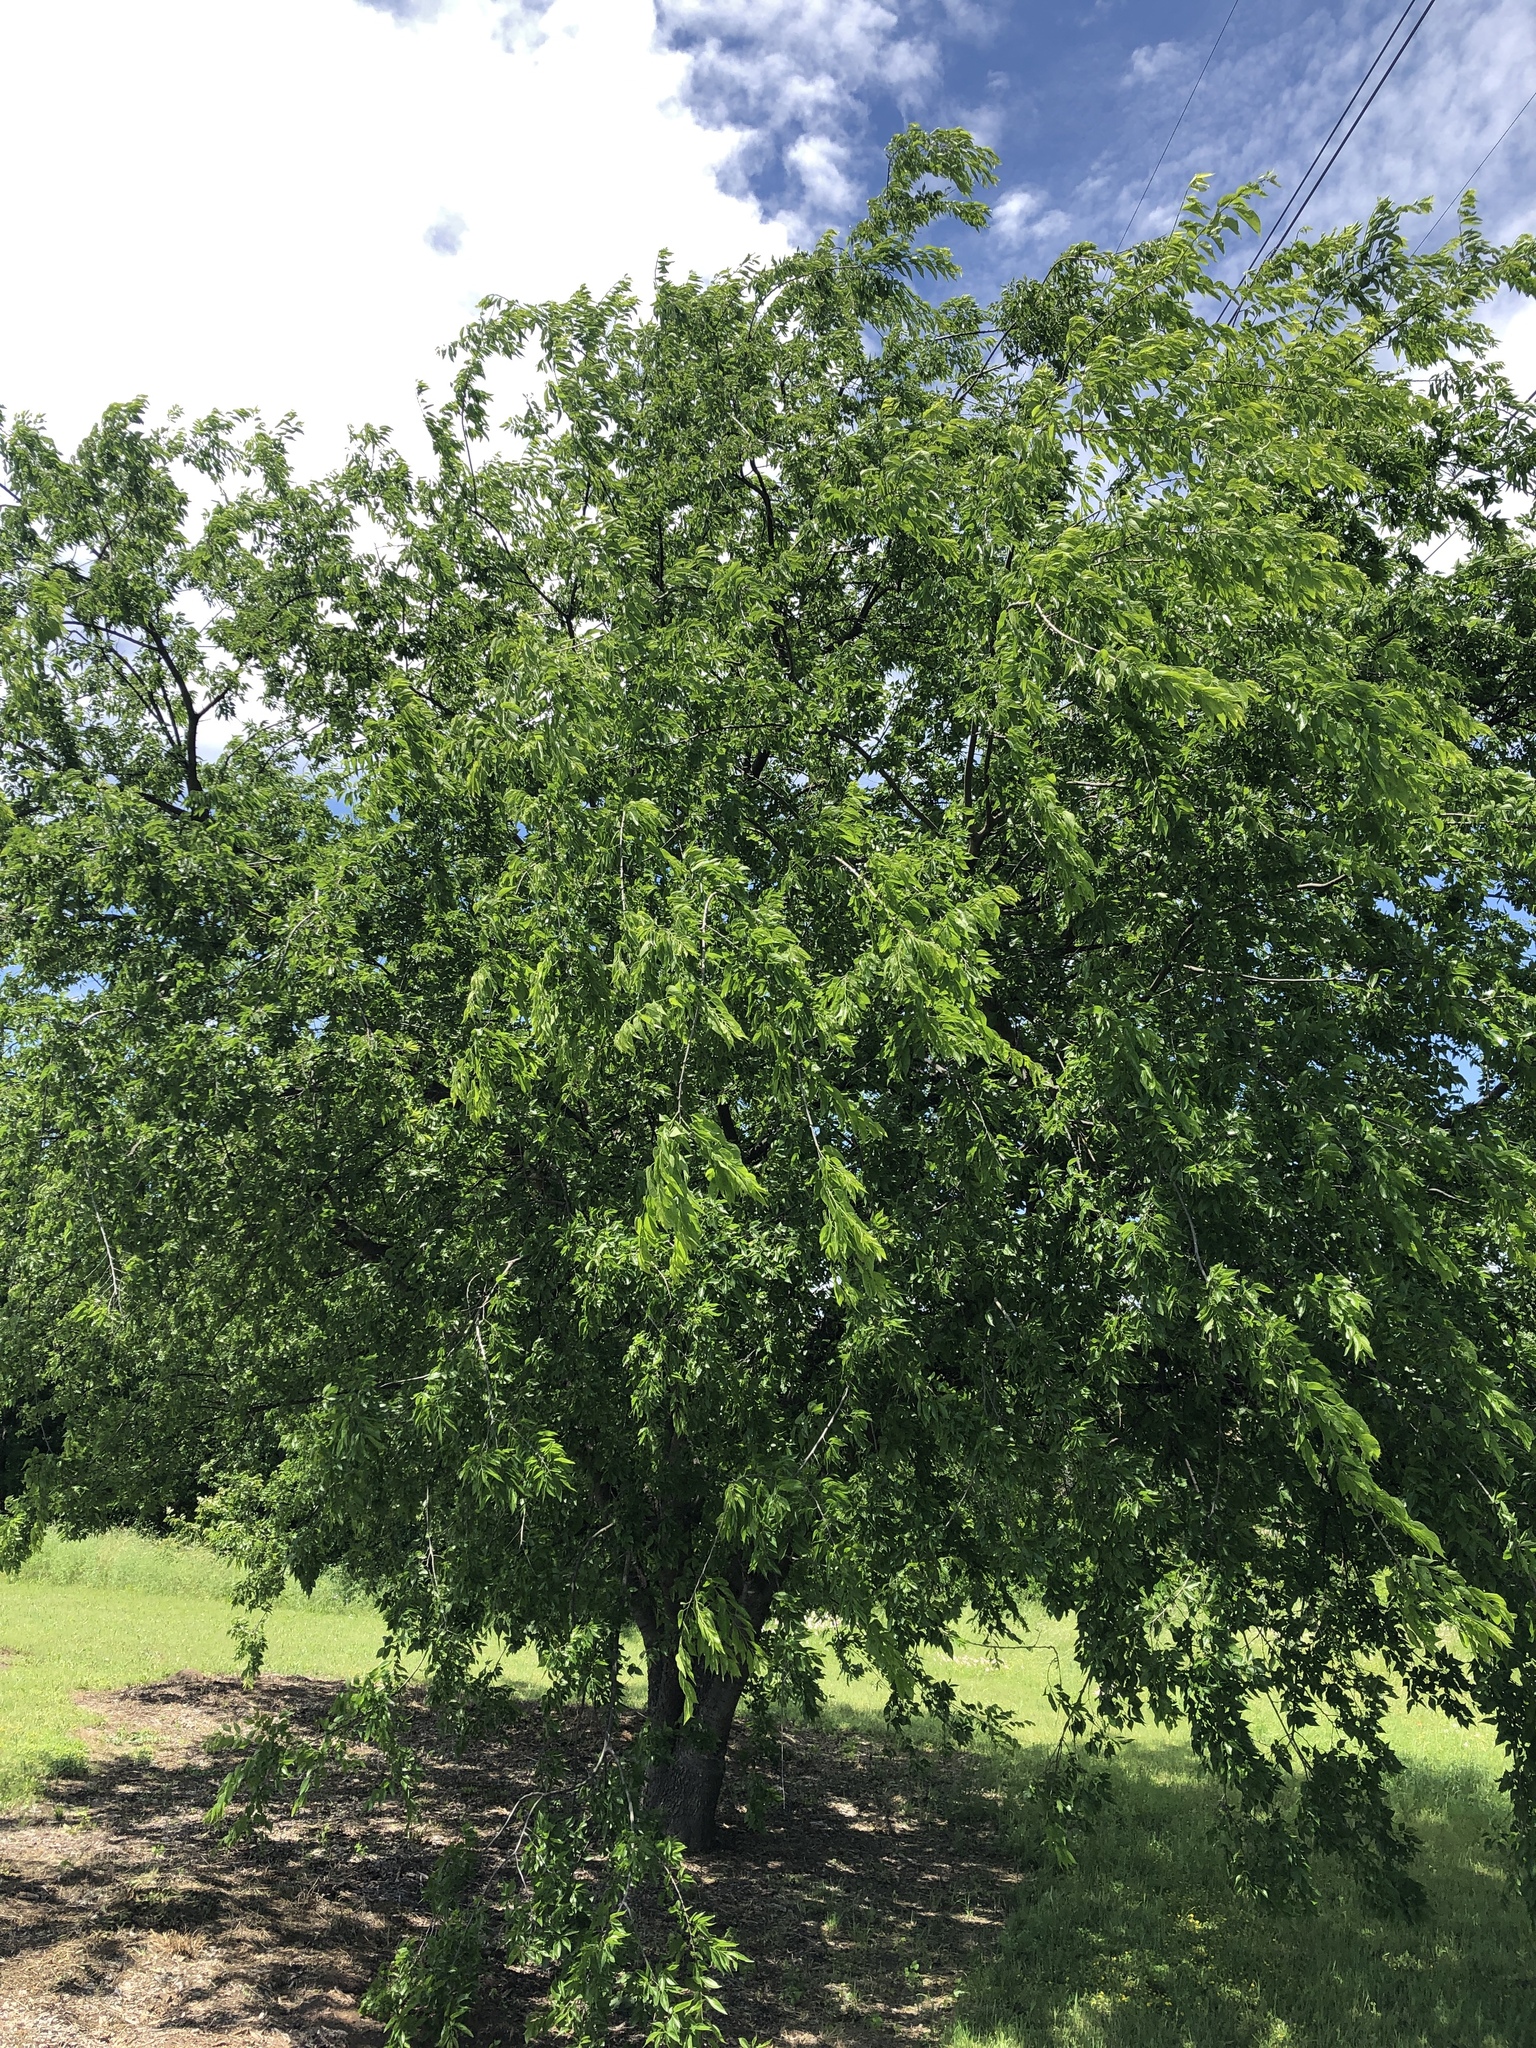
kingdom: Plantae
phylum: Tracheophyta
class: Magnoliopsida
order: Rosales
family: Cannabaceae
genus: Celtis
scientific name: Celtis laevigata
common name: Sugarberry
